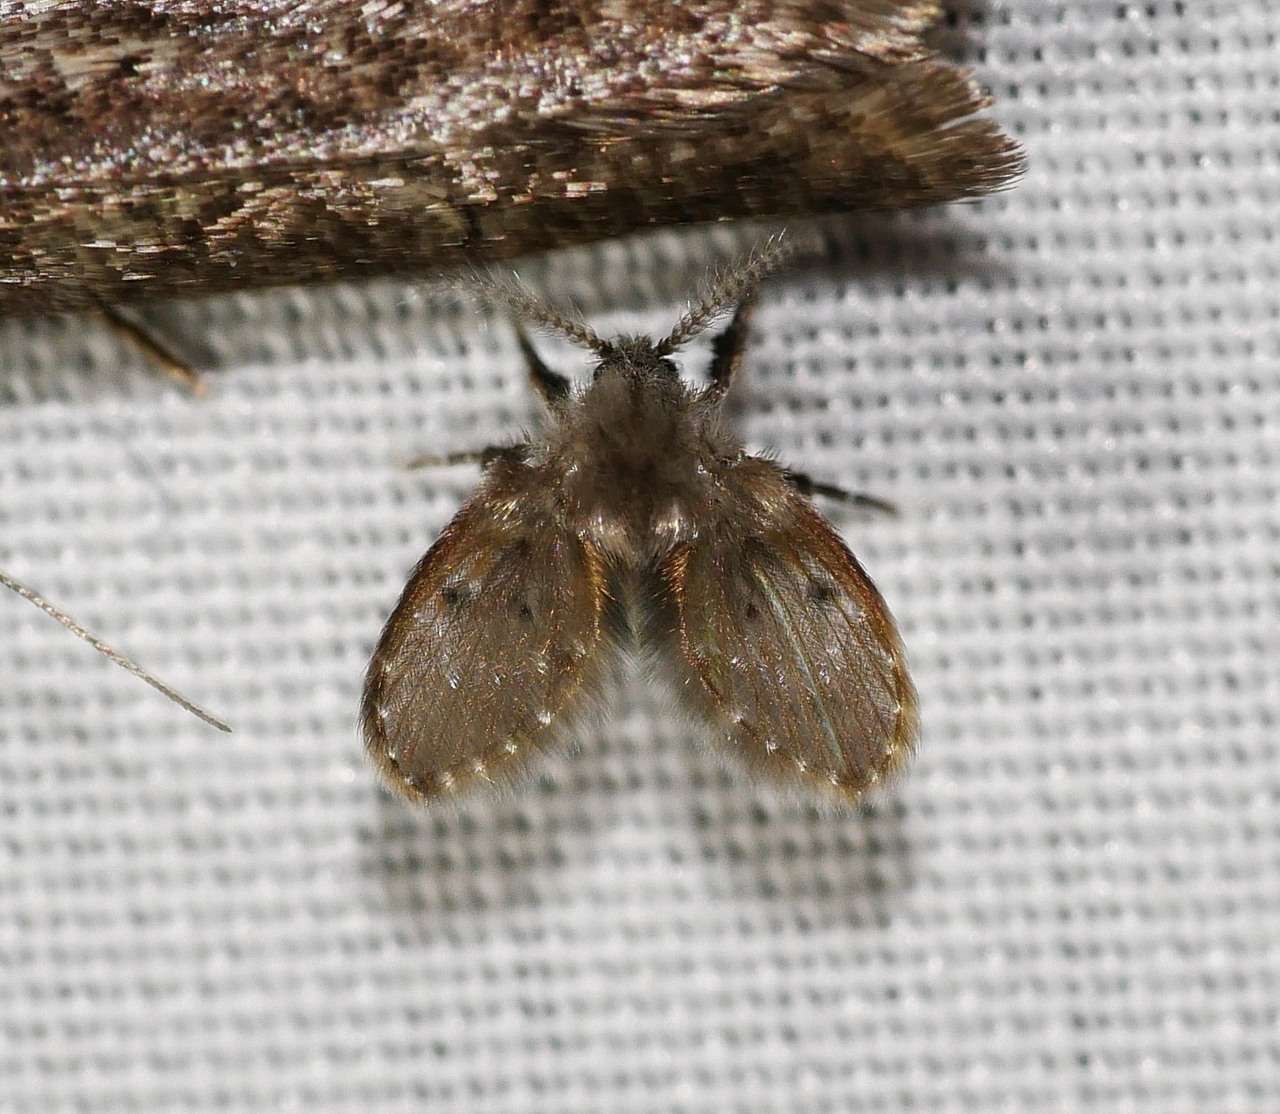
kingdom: Animalia
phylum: Arthropoda
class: Insecta
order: Diptera
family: Psychodidae
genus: Clogmia
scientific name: Clogmia albipunctatus
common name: White-spotted moth fly
